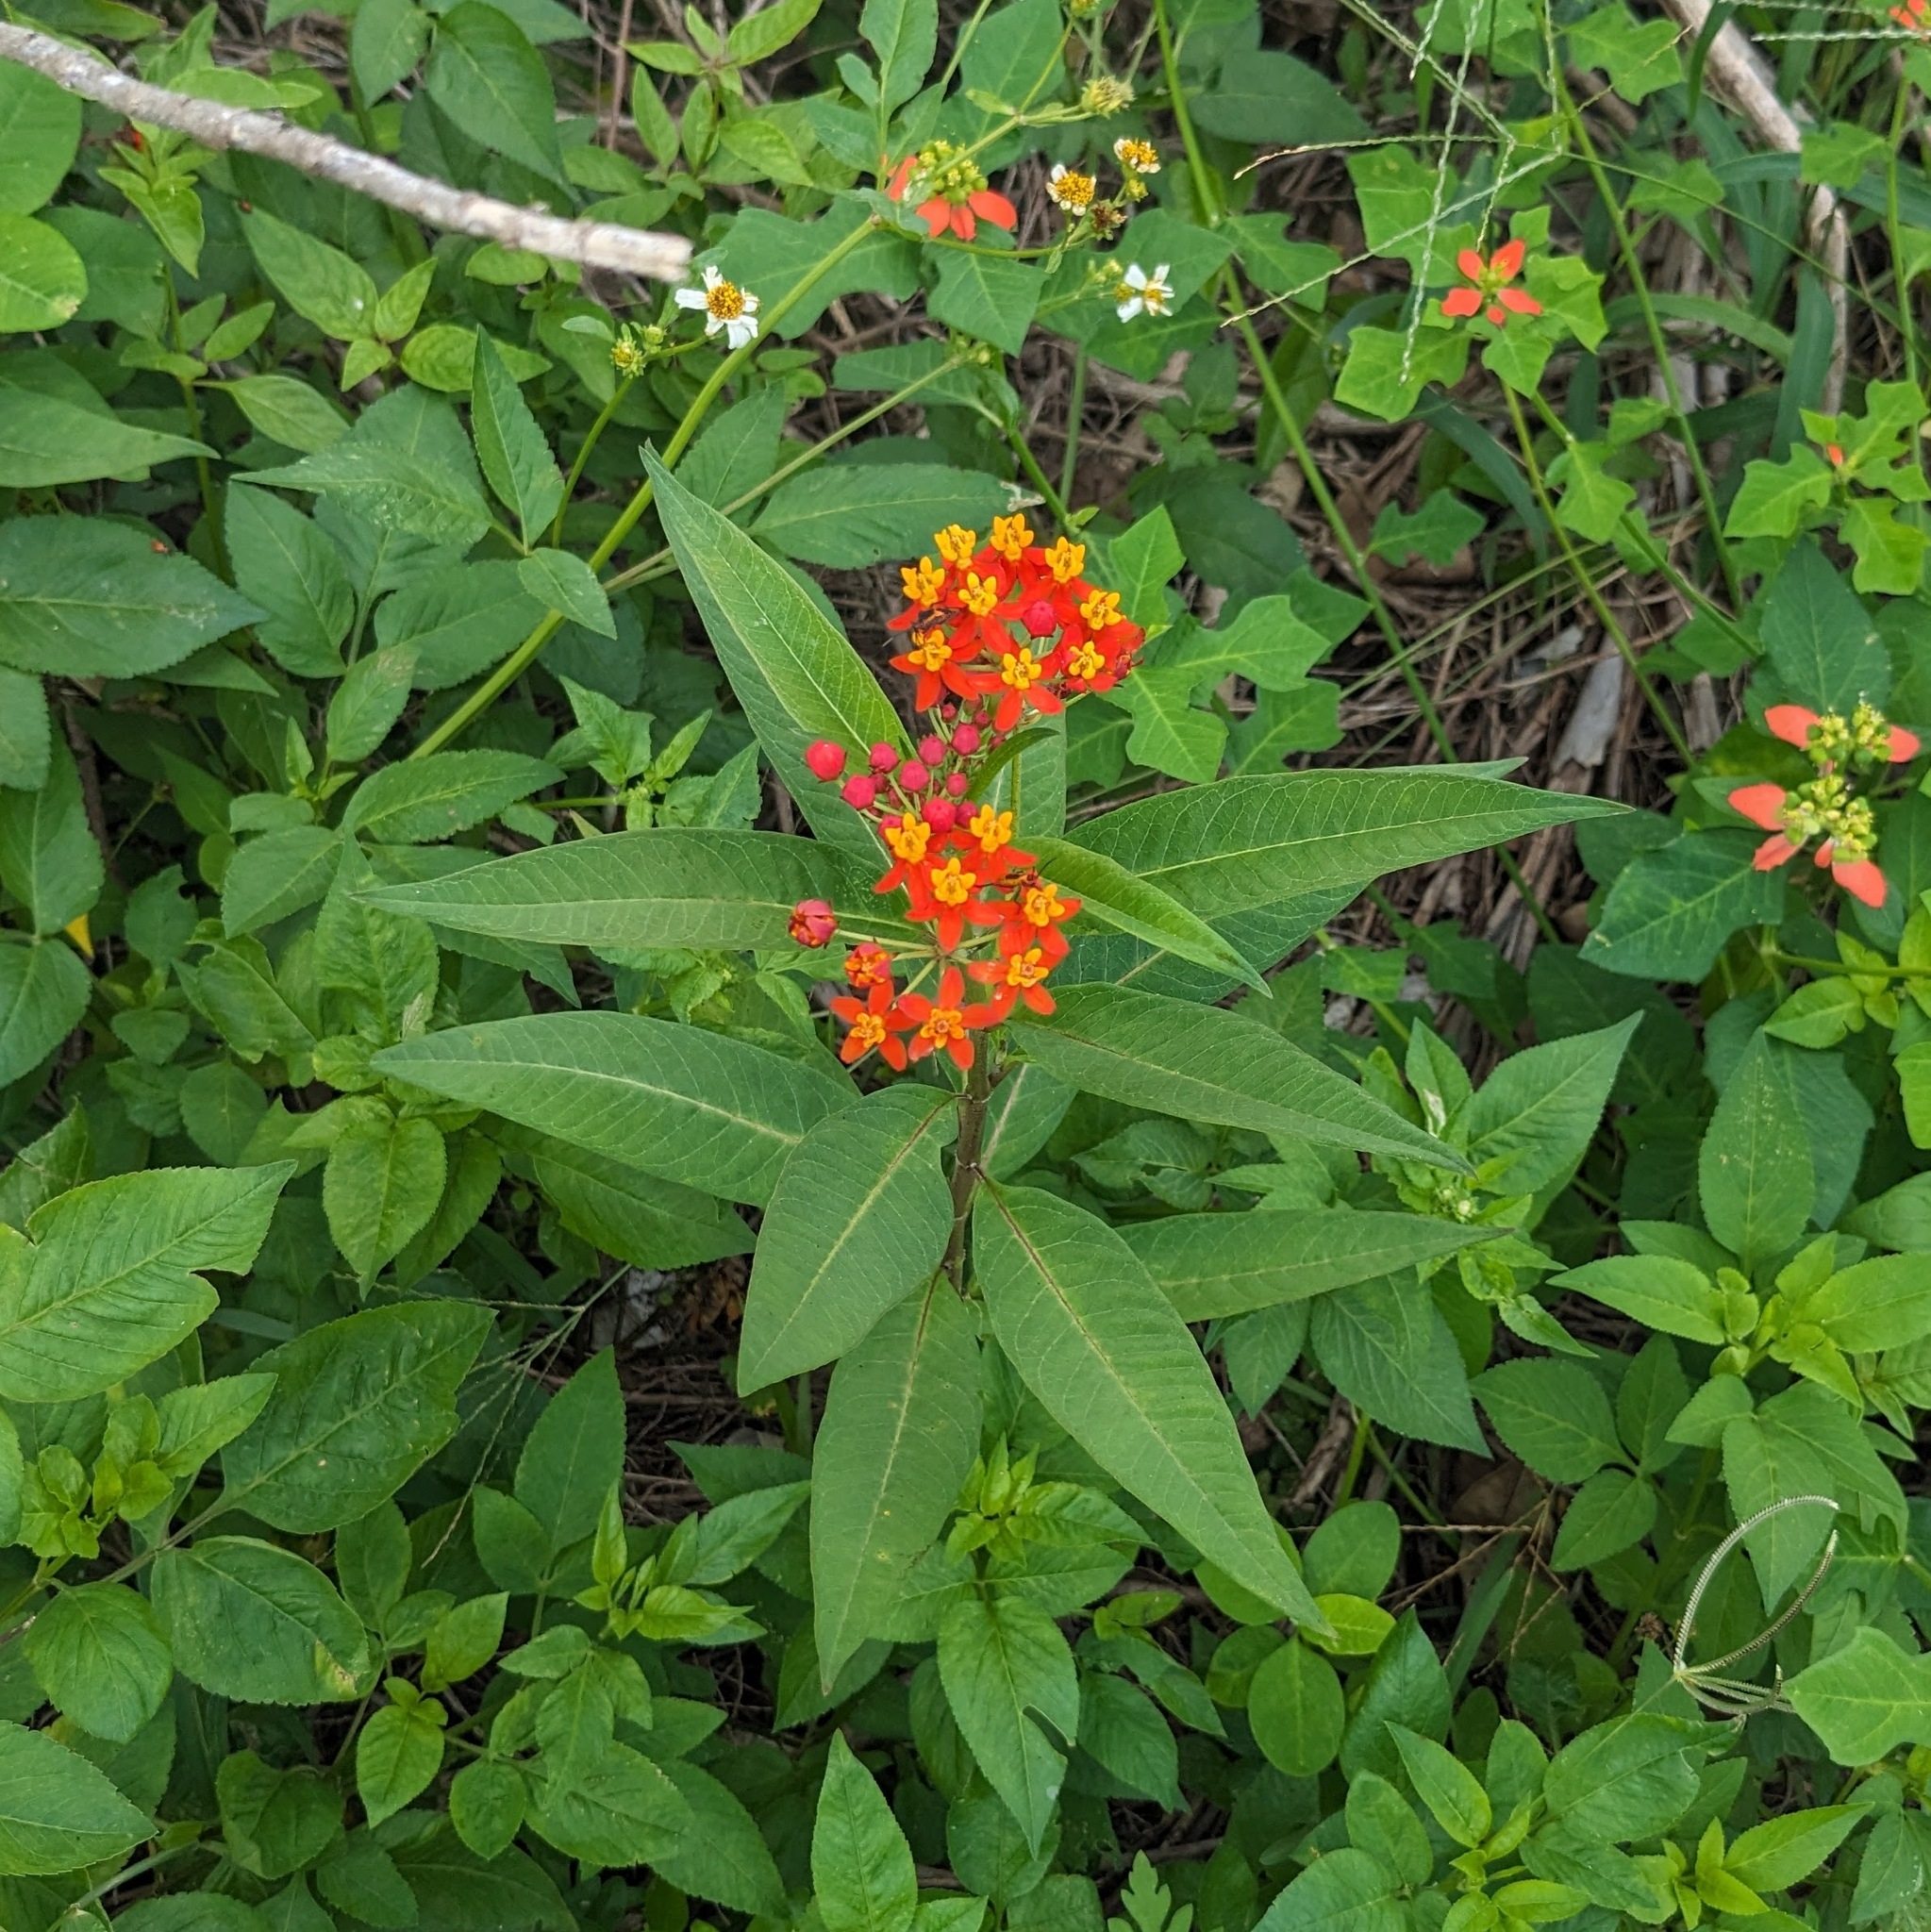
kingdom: Plantae
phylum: Tracheophyta
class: Magnoliopsida
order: Gentianales
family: Apocynaceae
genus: Asclepias
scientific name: Asclepias curassavica
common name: Bloodflower
